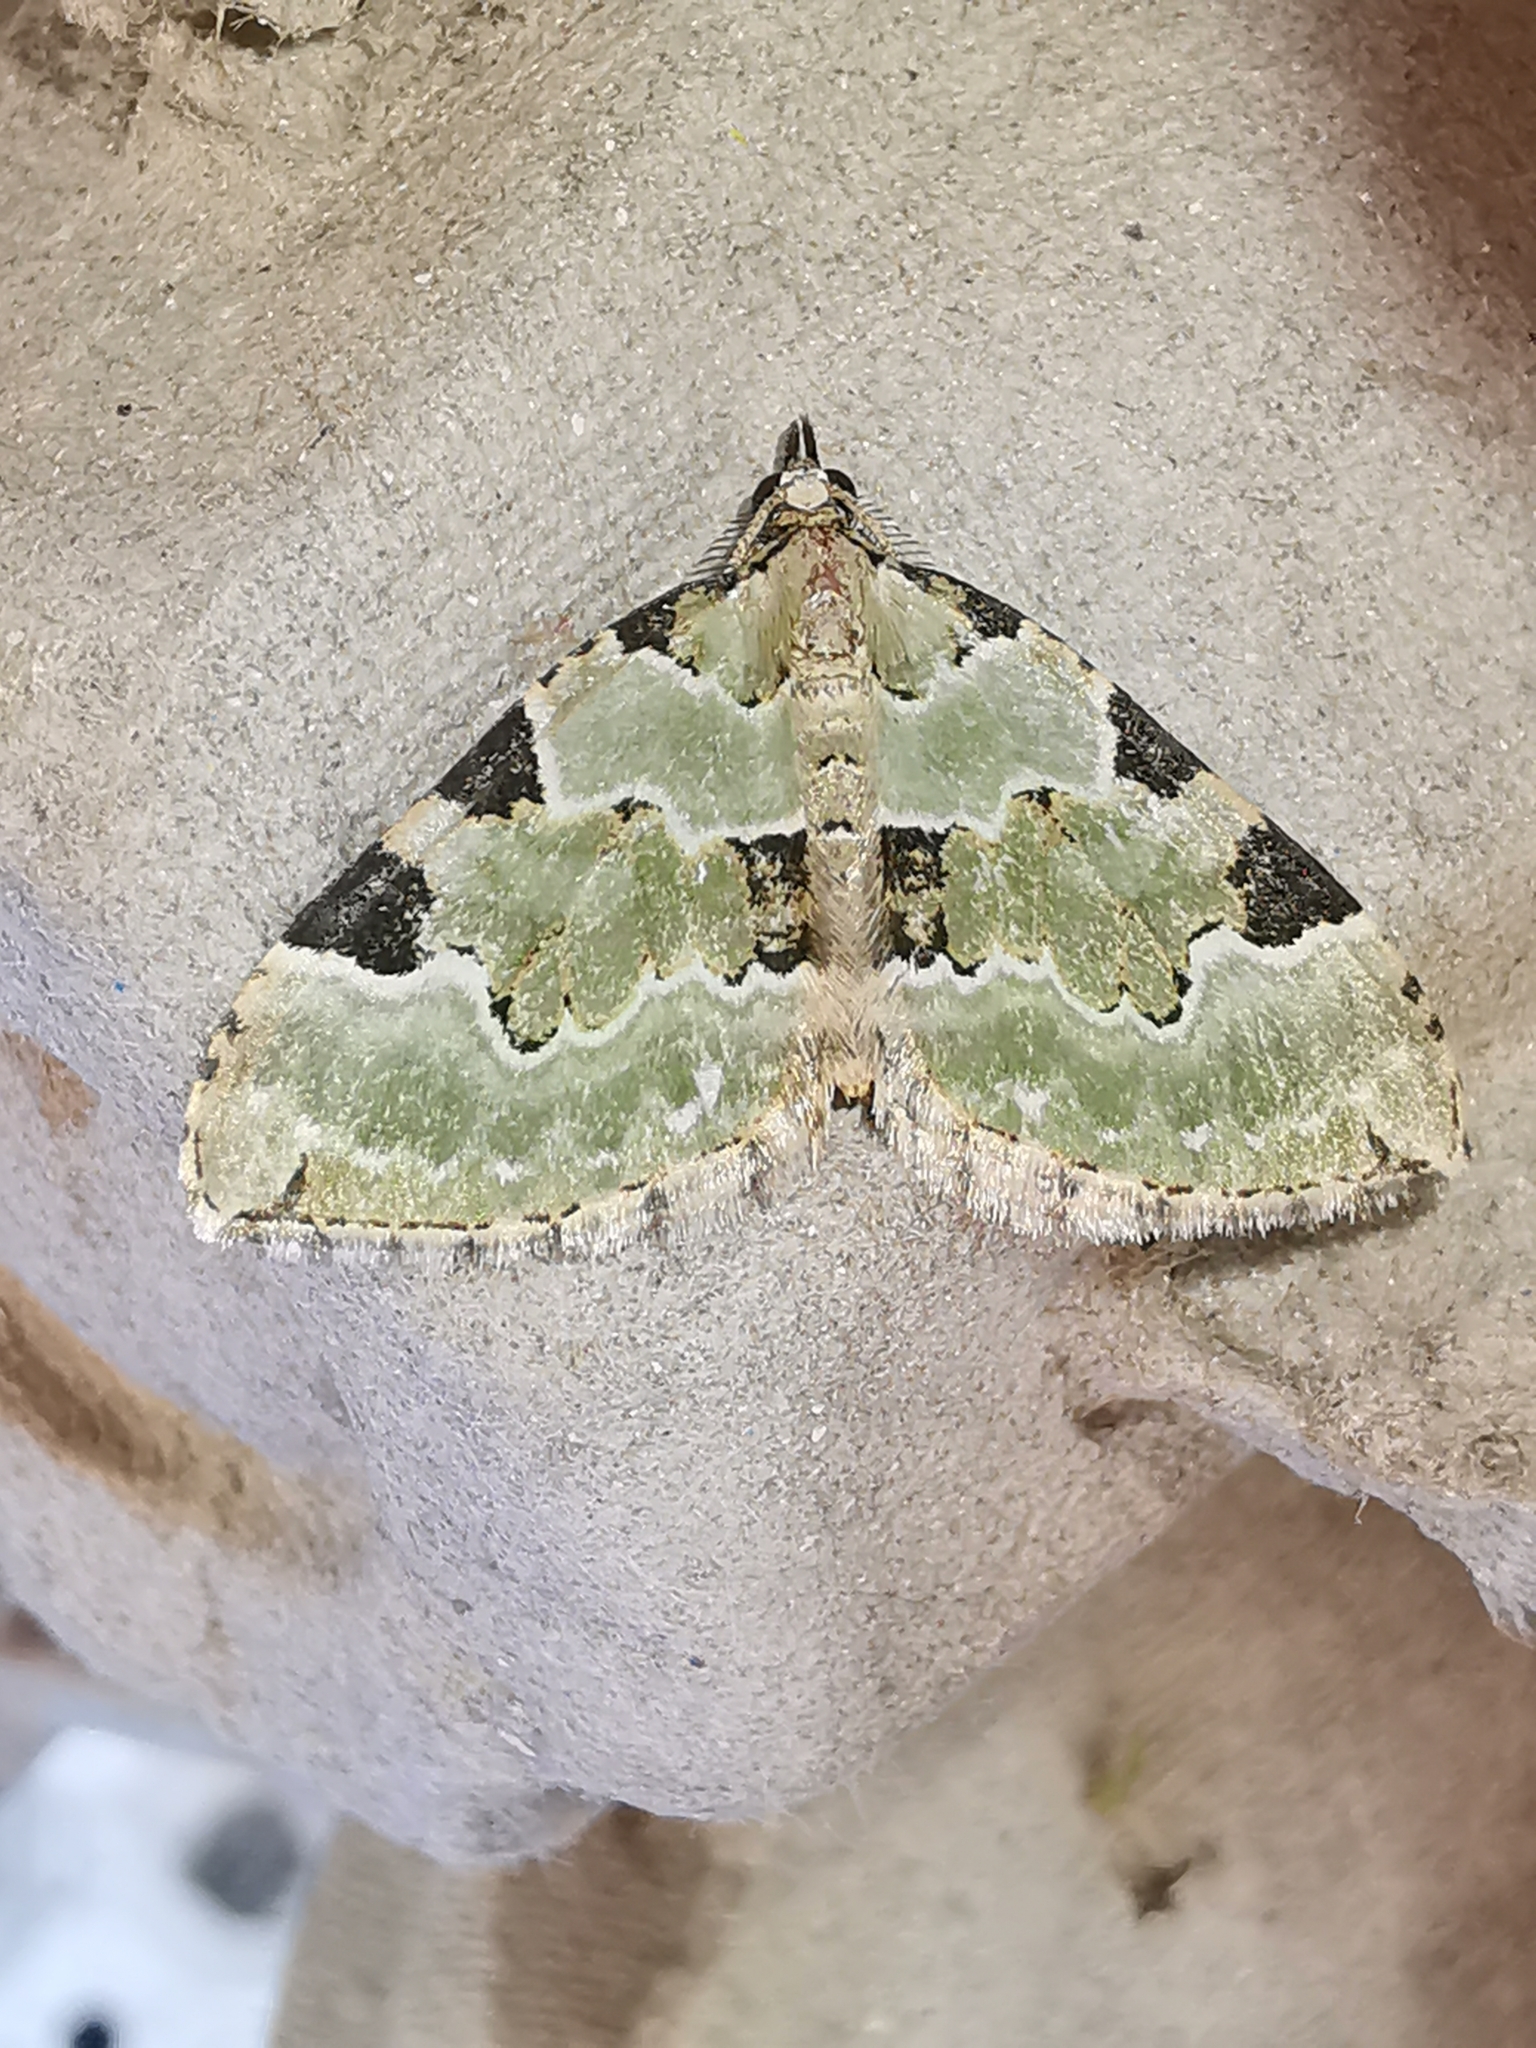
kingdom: Animalia
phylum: Arthropoda
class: Insecta
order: Lepidoptera
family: Geometridae
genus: Colostygia
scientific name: Colostygia pectinataria
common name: Green carpet
